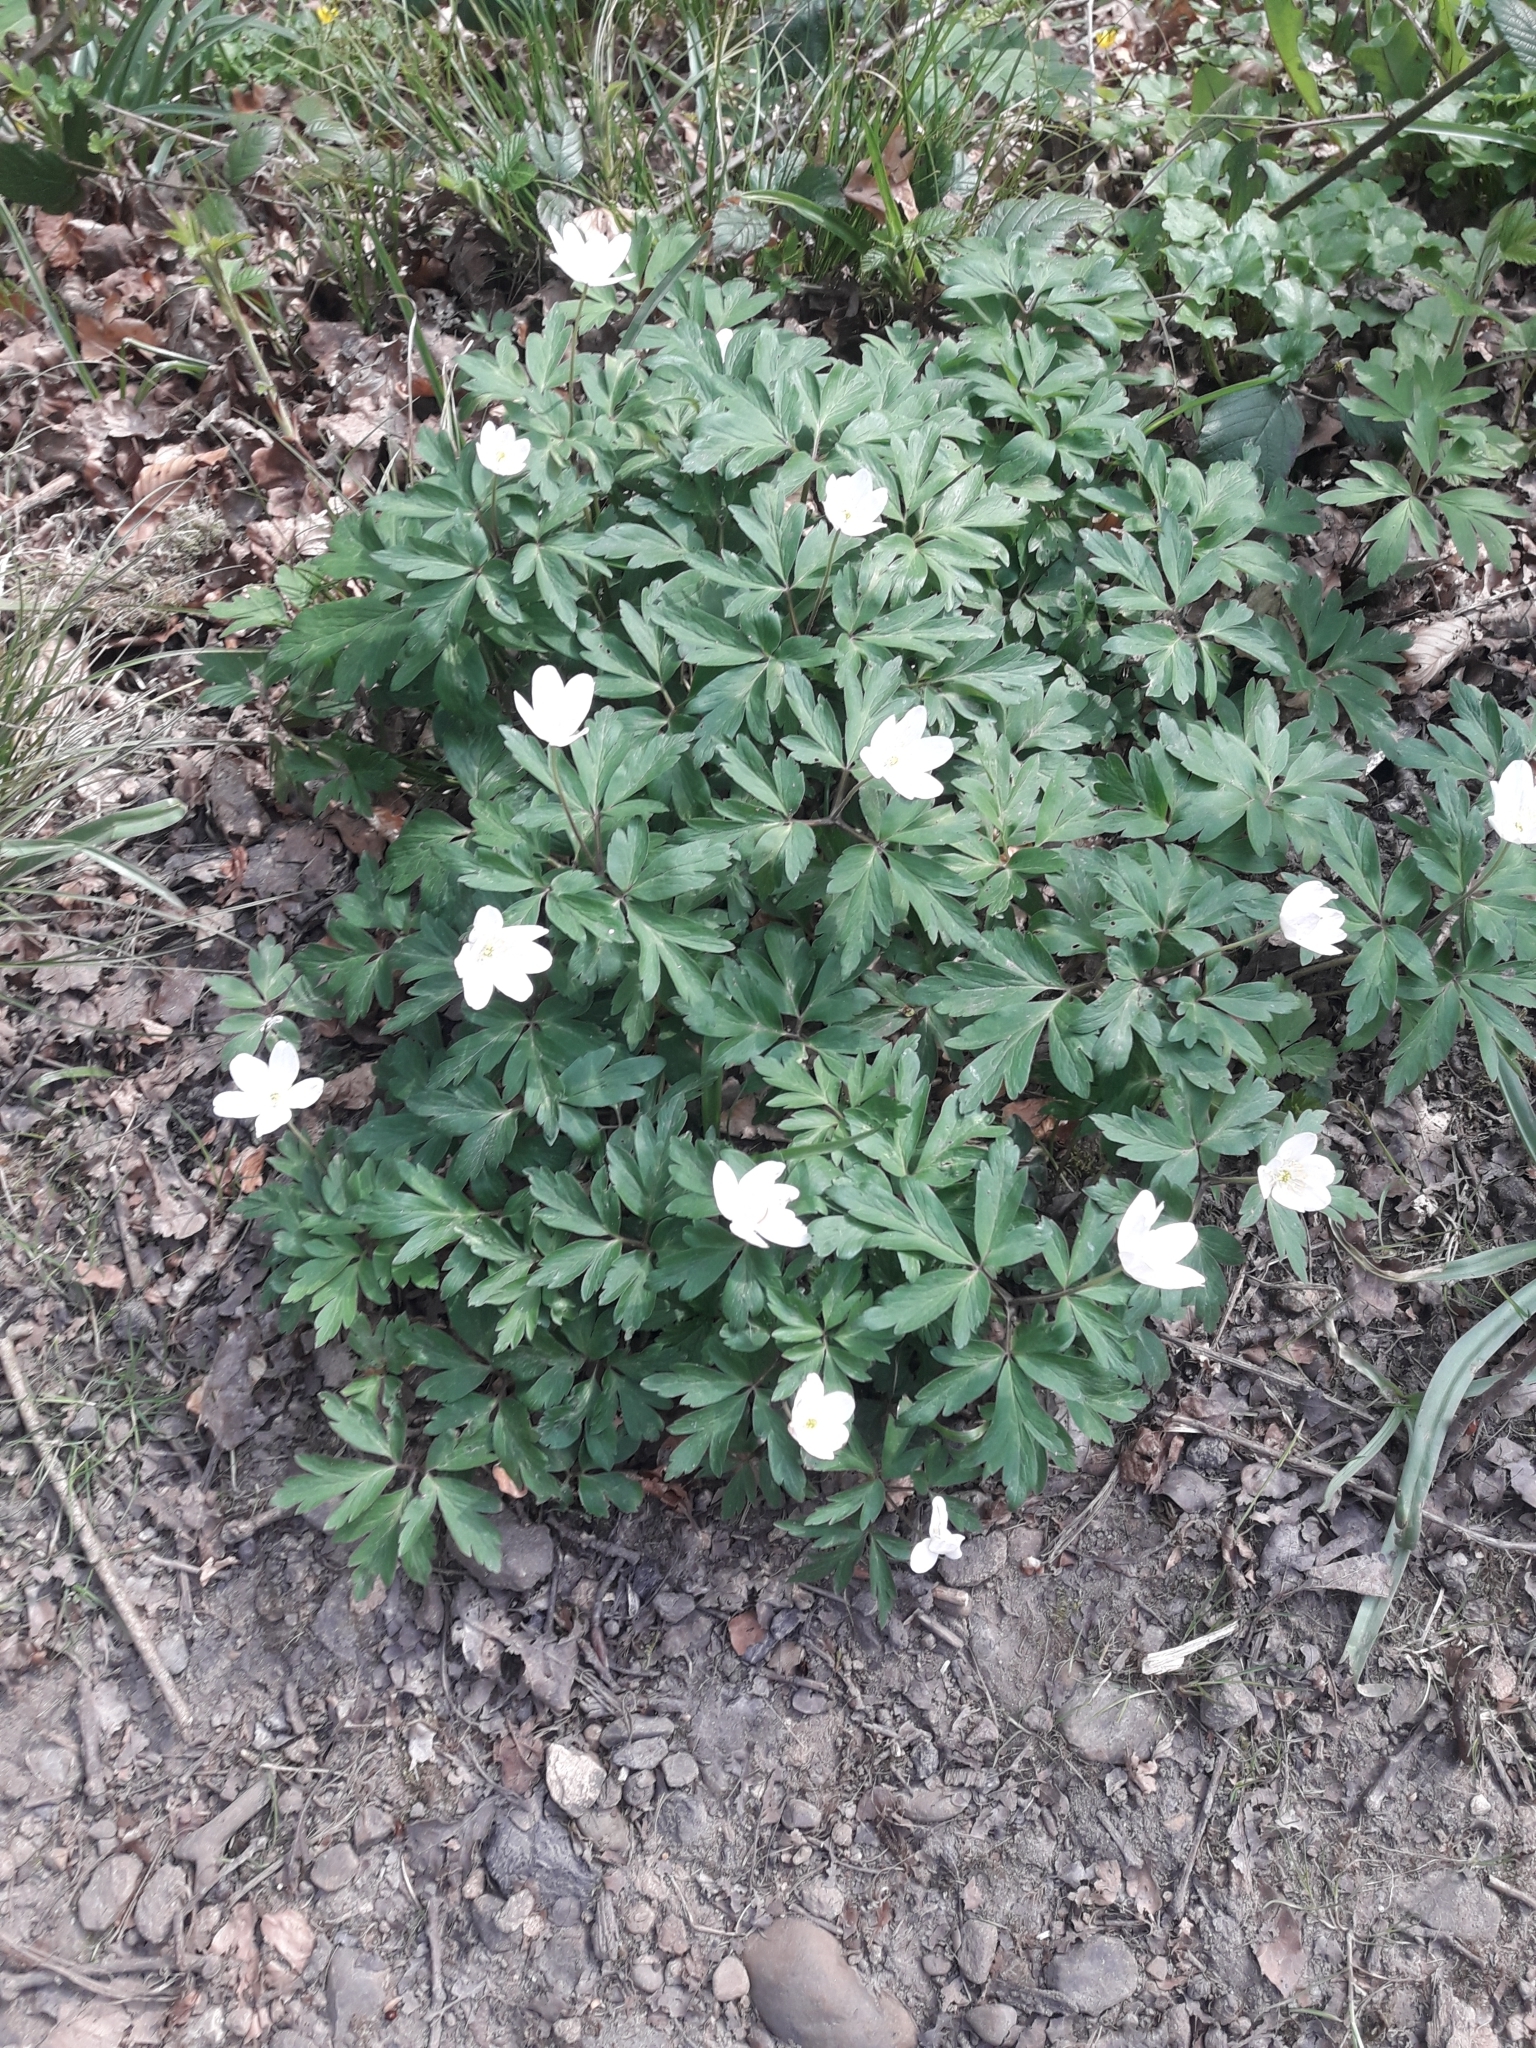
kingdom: Plantae
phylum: Tracheophyta
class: Magnoliopsida
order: Ranunculales
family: Ranunculaceae
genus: Anemone
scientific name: Anemone nemorosa
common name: Wood anemone
